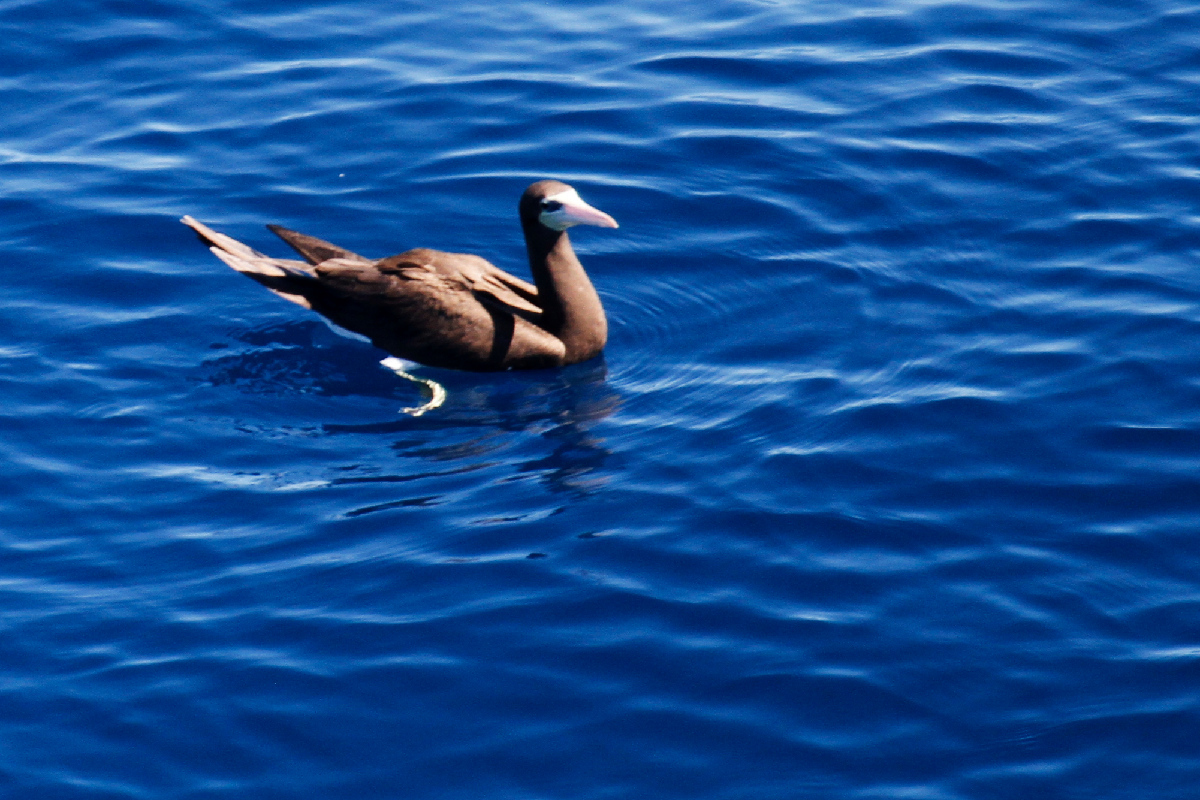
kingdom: Animalia
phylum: Chordata
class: Aves
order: Suliformes
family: Sulidae
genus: Sula
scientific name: Sula leucogaster
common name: Brown booby
